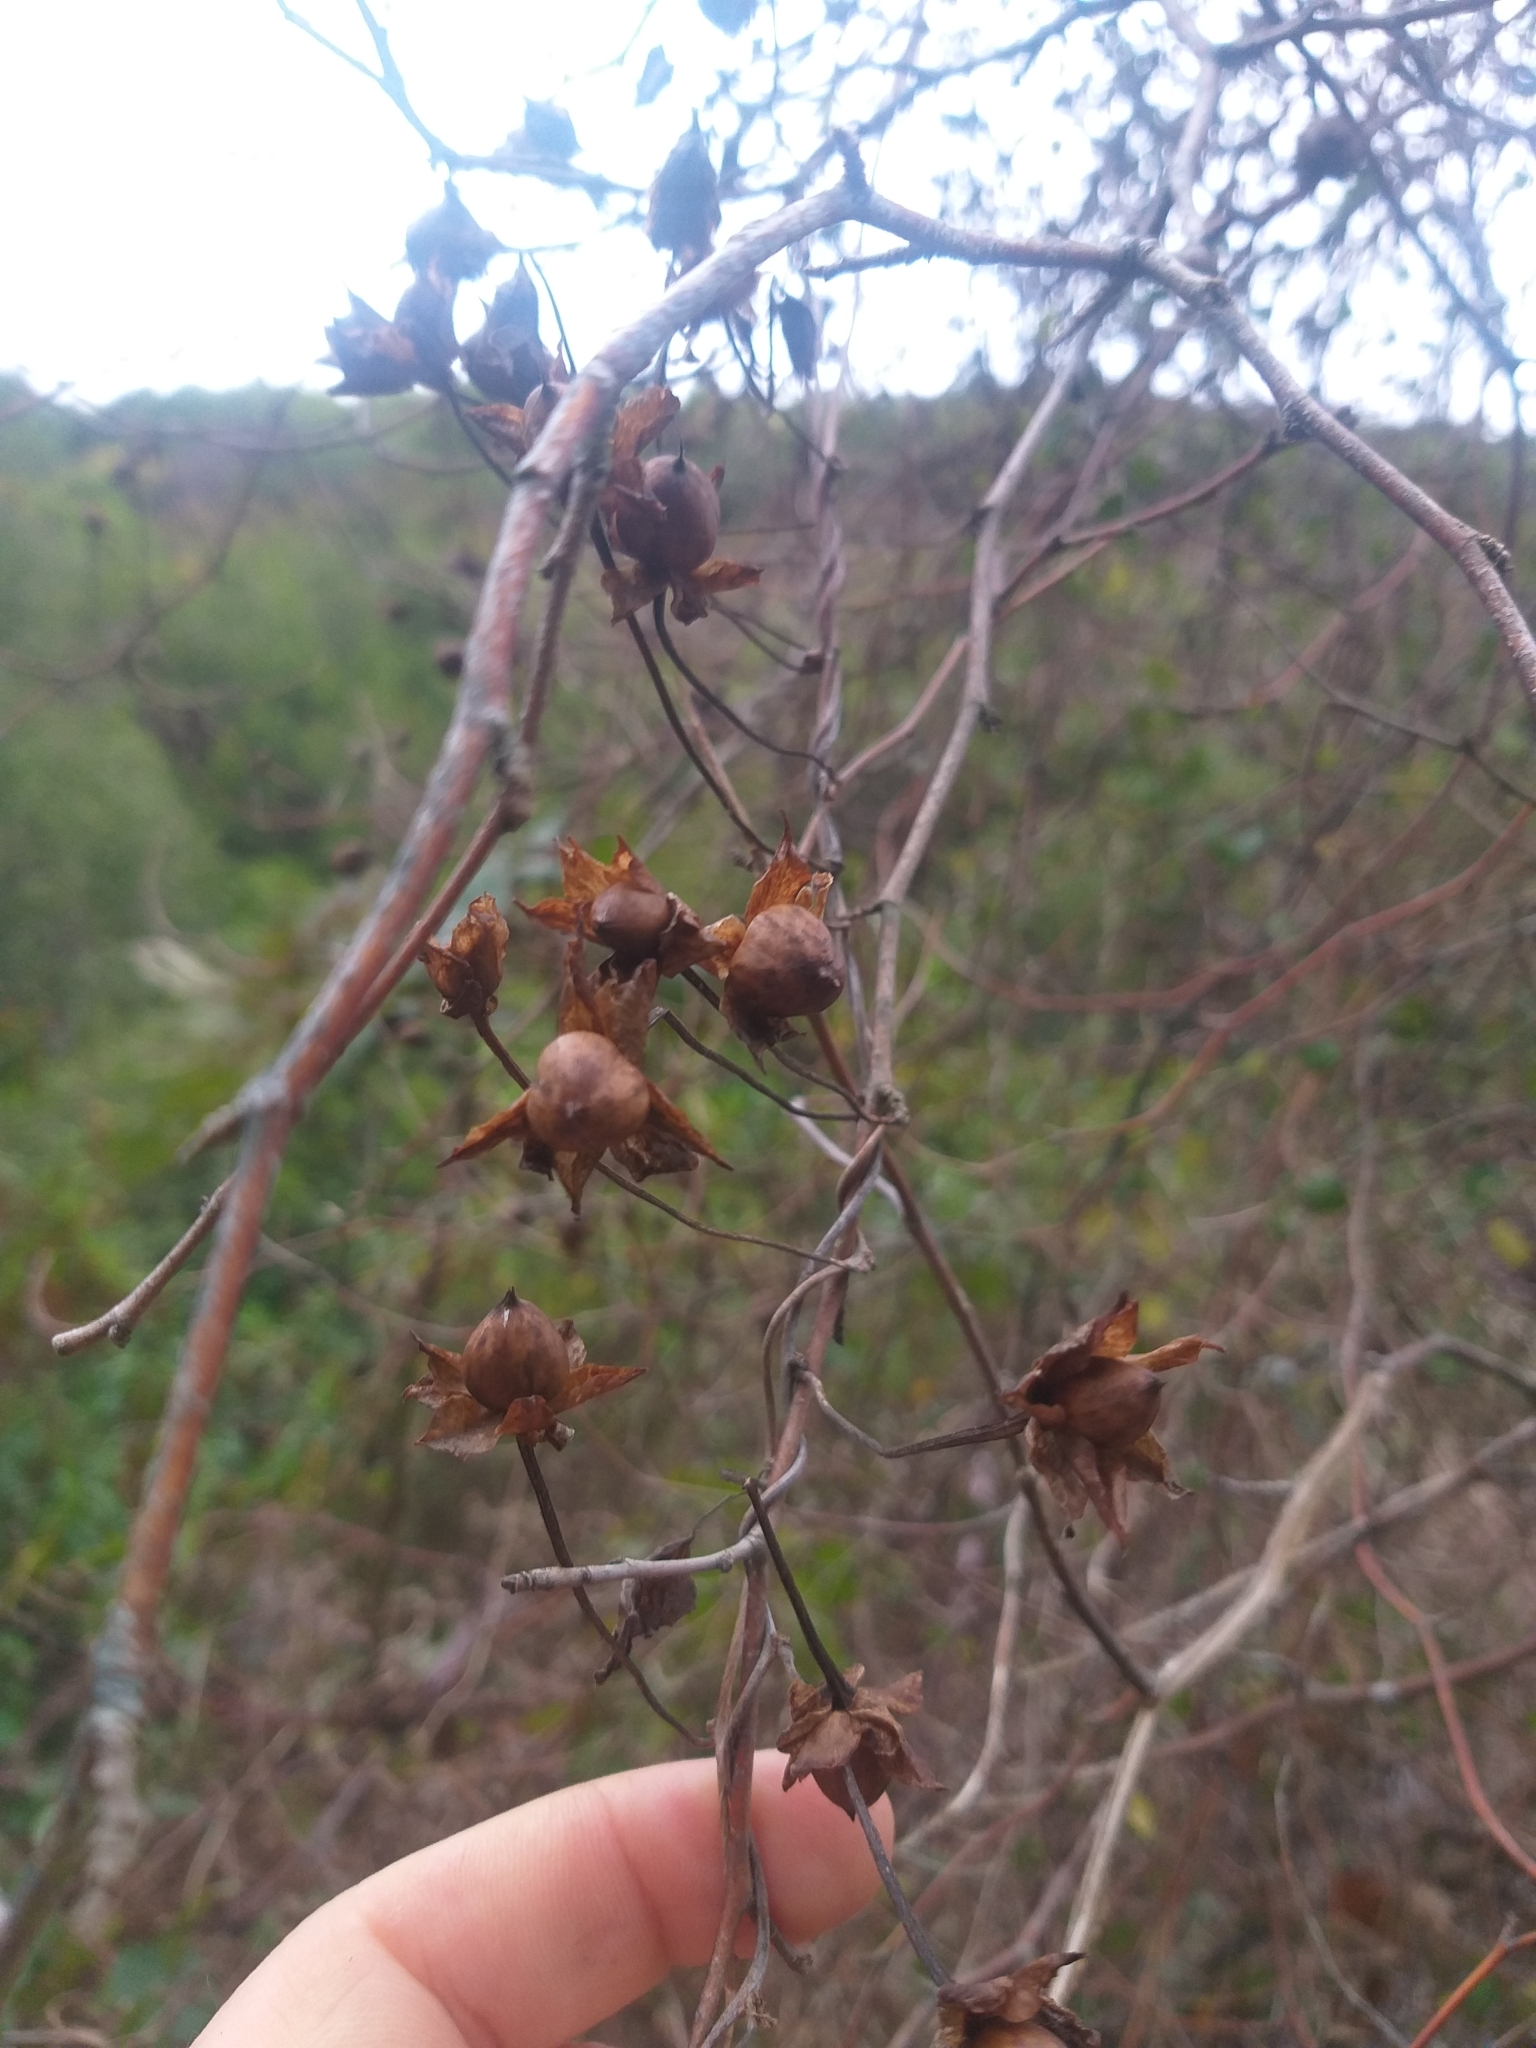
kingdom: Plantae
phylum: Tracheophyta
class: Magnoliopsida
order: Solanales
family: Convolvulaceae
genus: Calystegia
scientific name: Calystegia tuguriorum
